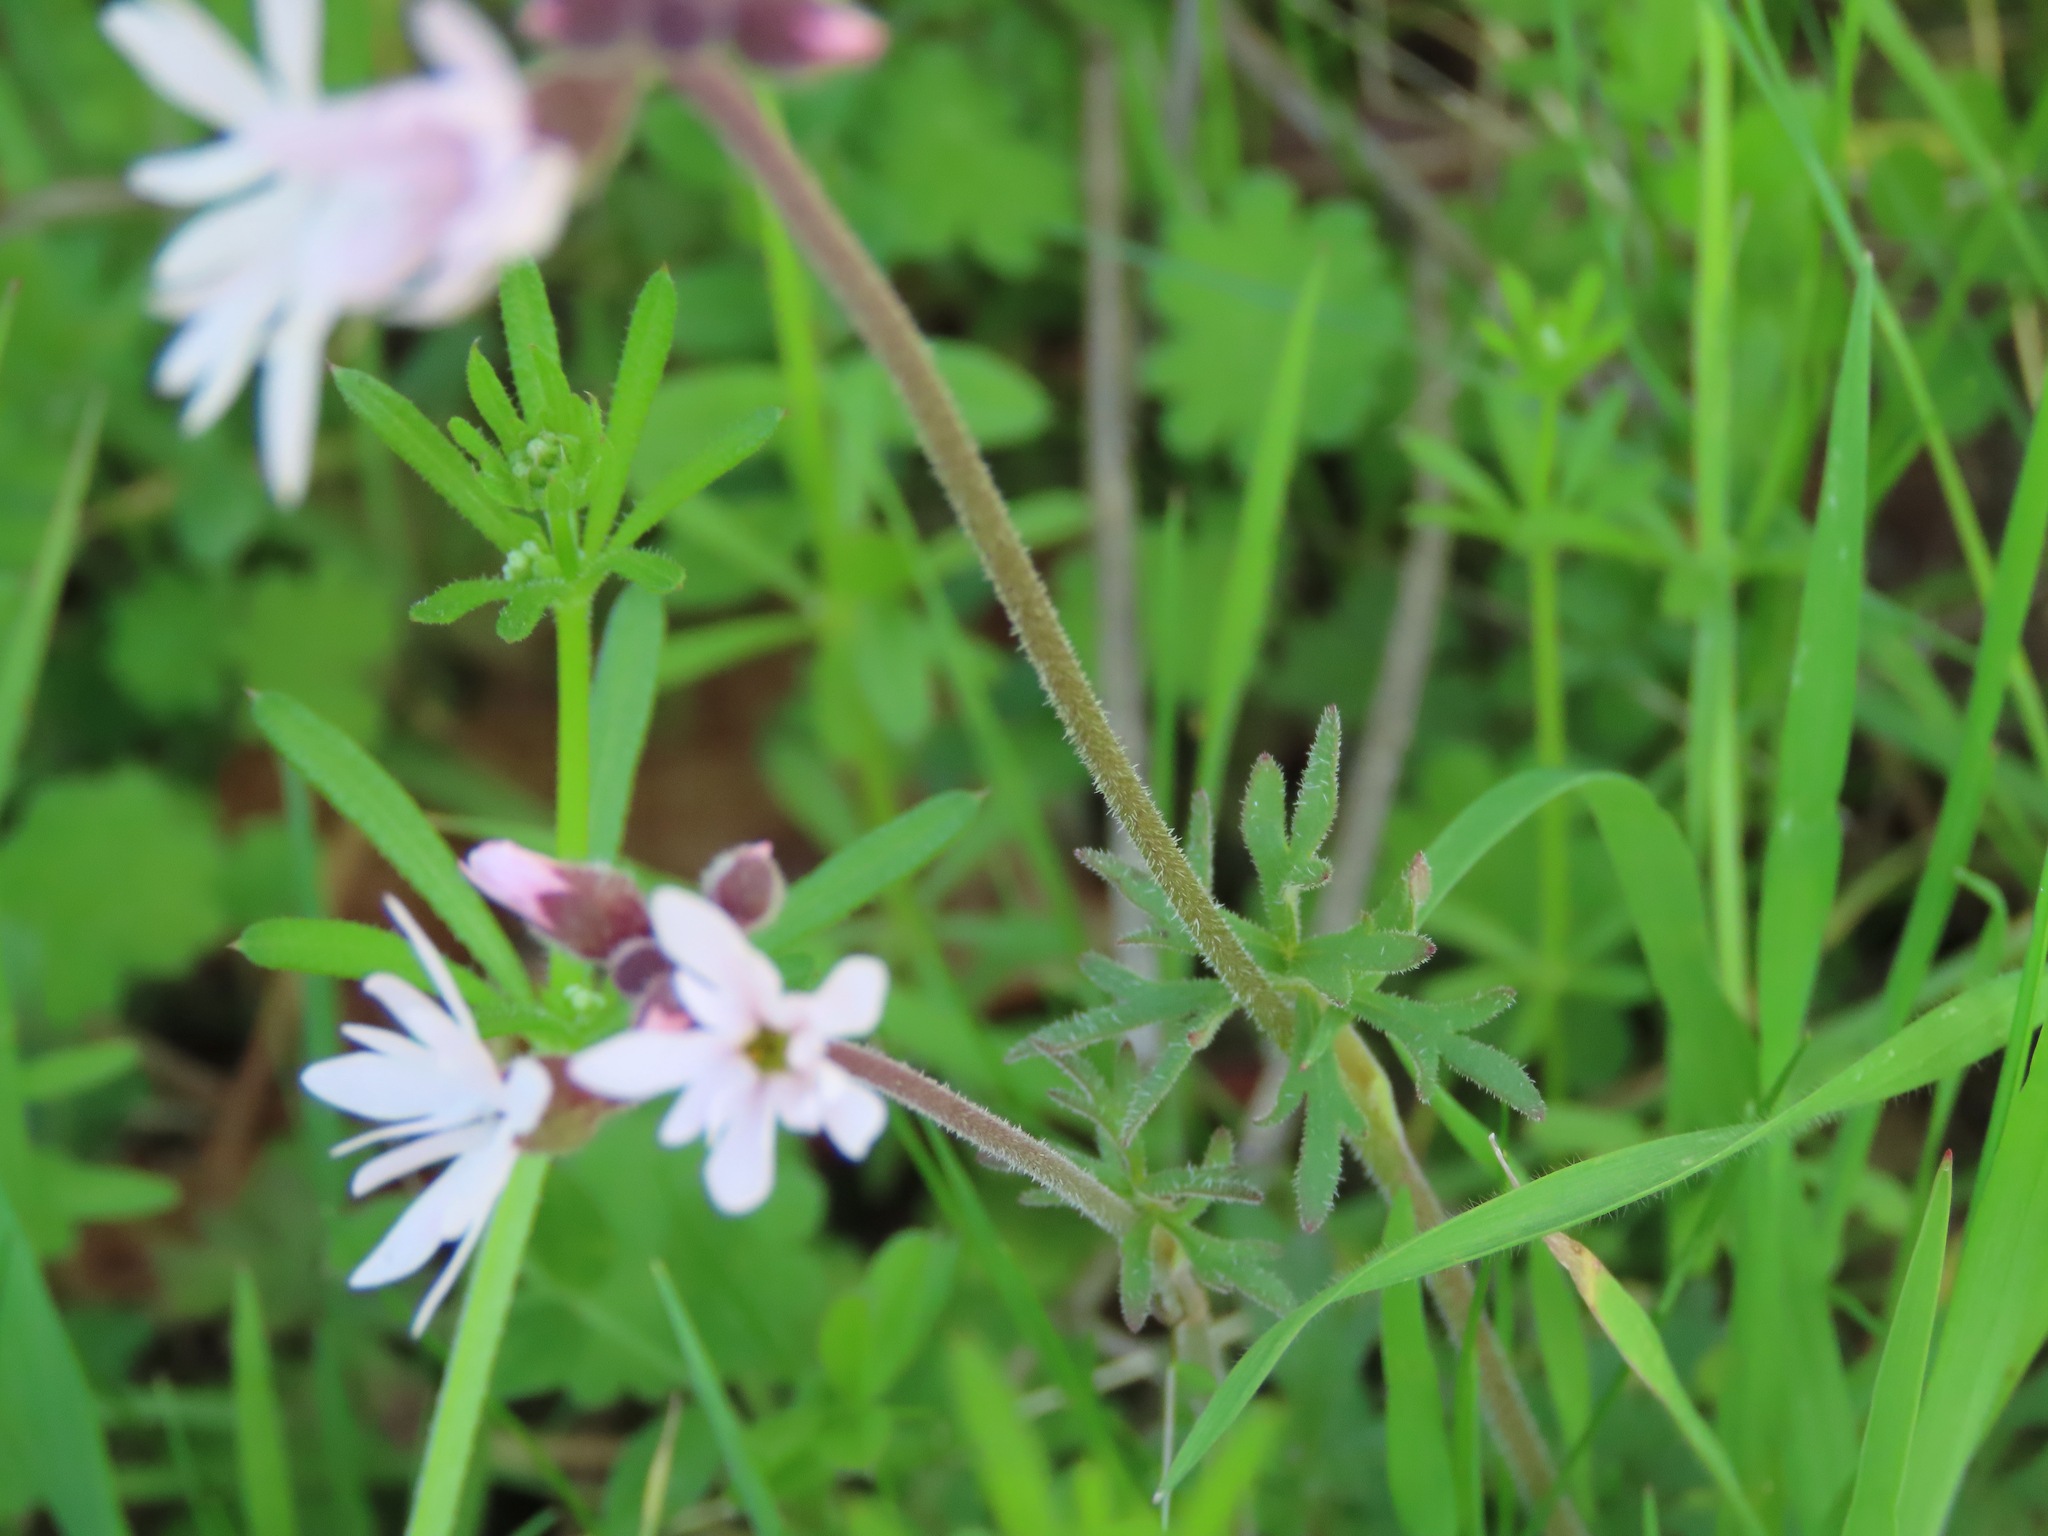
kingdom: Plantae
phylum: Tracheophyta
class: Magnoliopsida
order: Saxifragales
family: Saxifragaceae
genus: Lithophragma
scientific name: Lithophragma parviflorum
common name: Small-flowered fringe-cup
